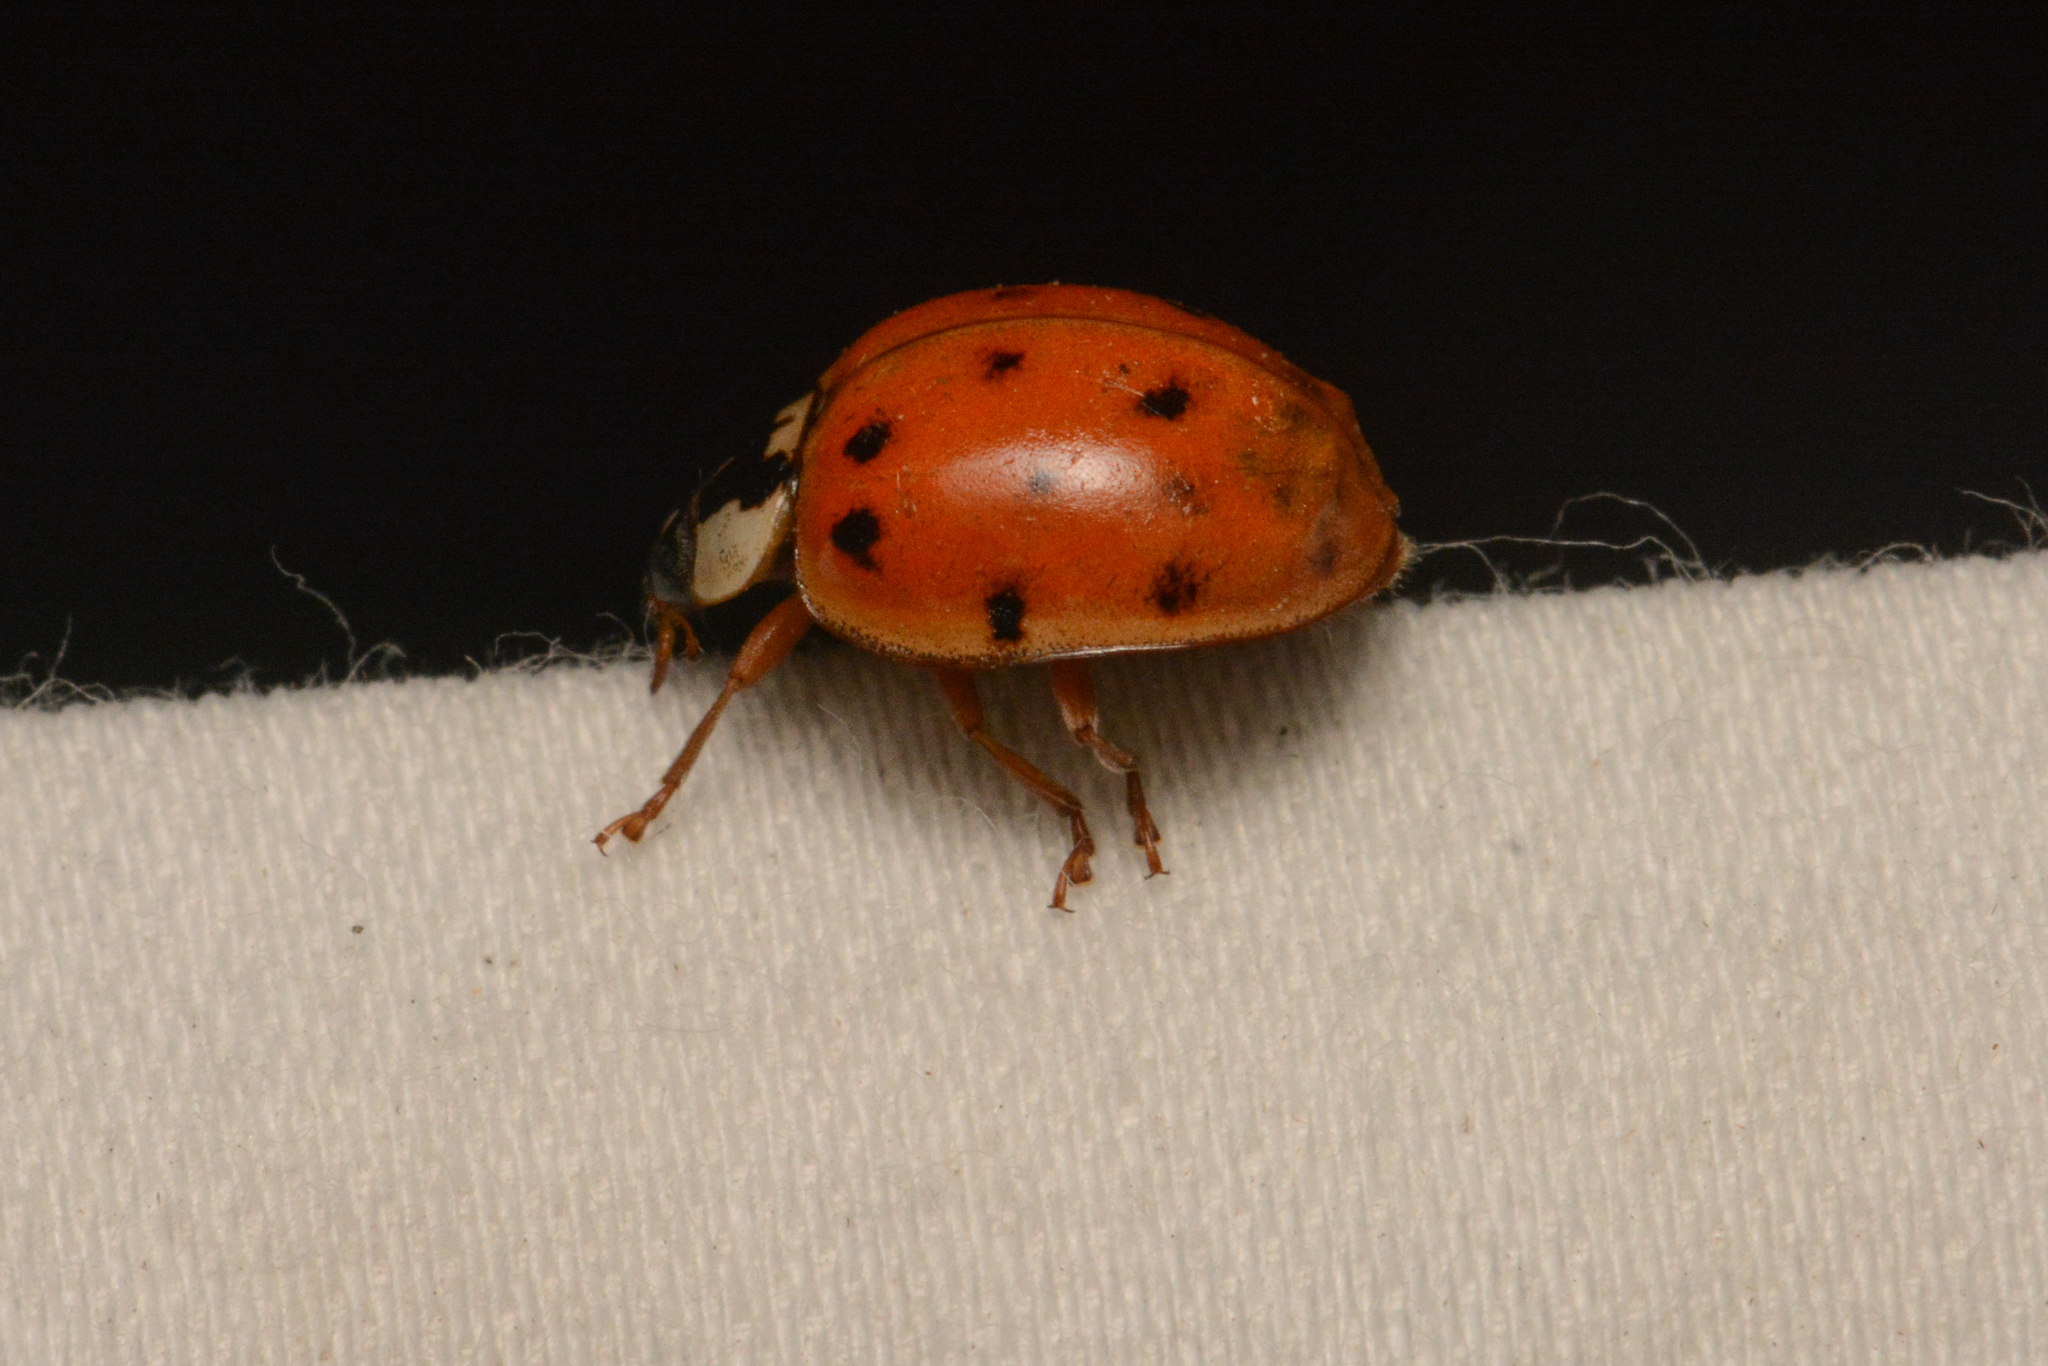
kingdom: Animalia
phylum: Arthropoda
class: Insecta
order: Coleoptera
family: Coccinellidae
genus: Harmonia
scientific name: Harmonia axyridis
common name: Harlequin ladybird
